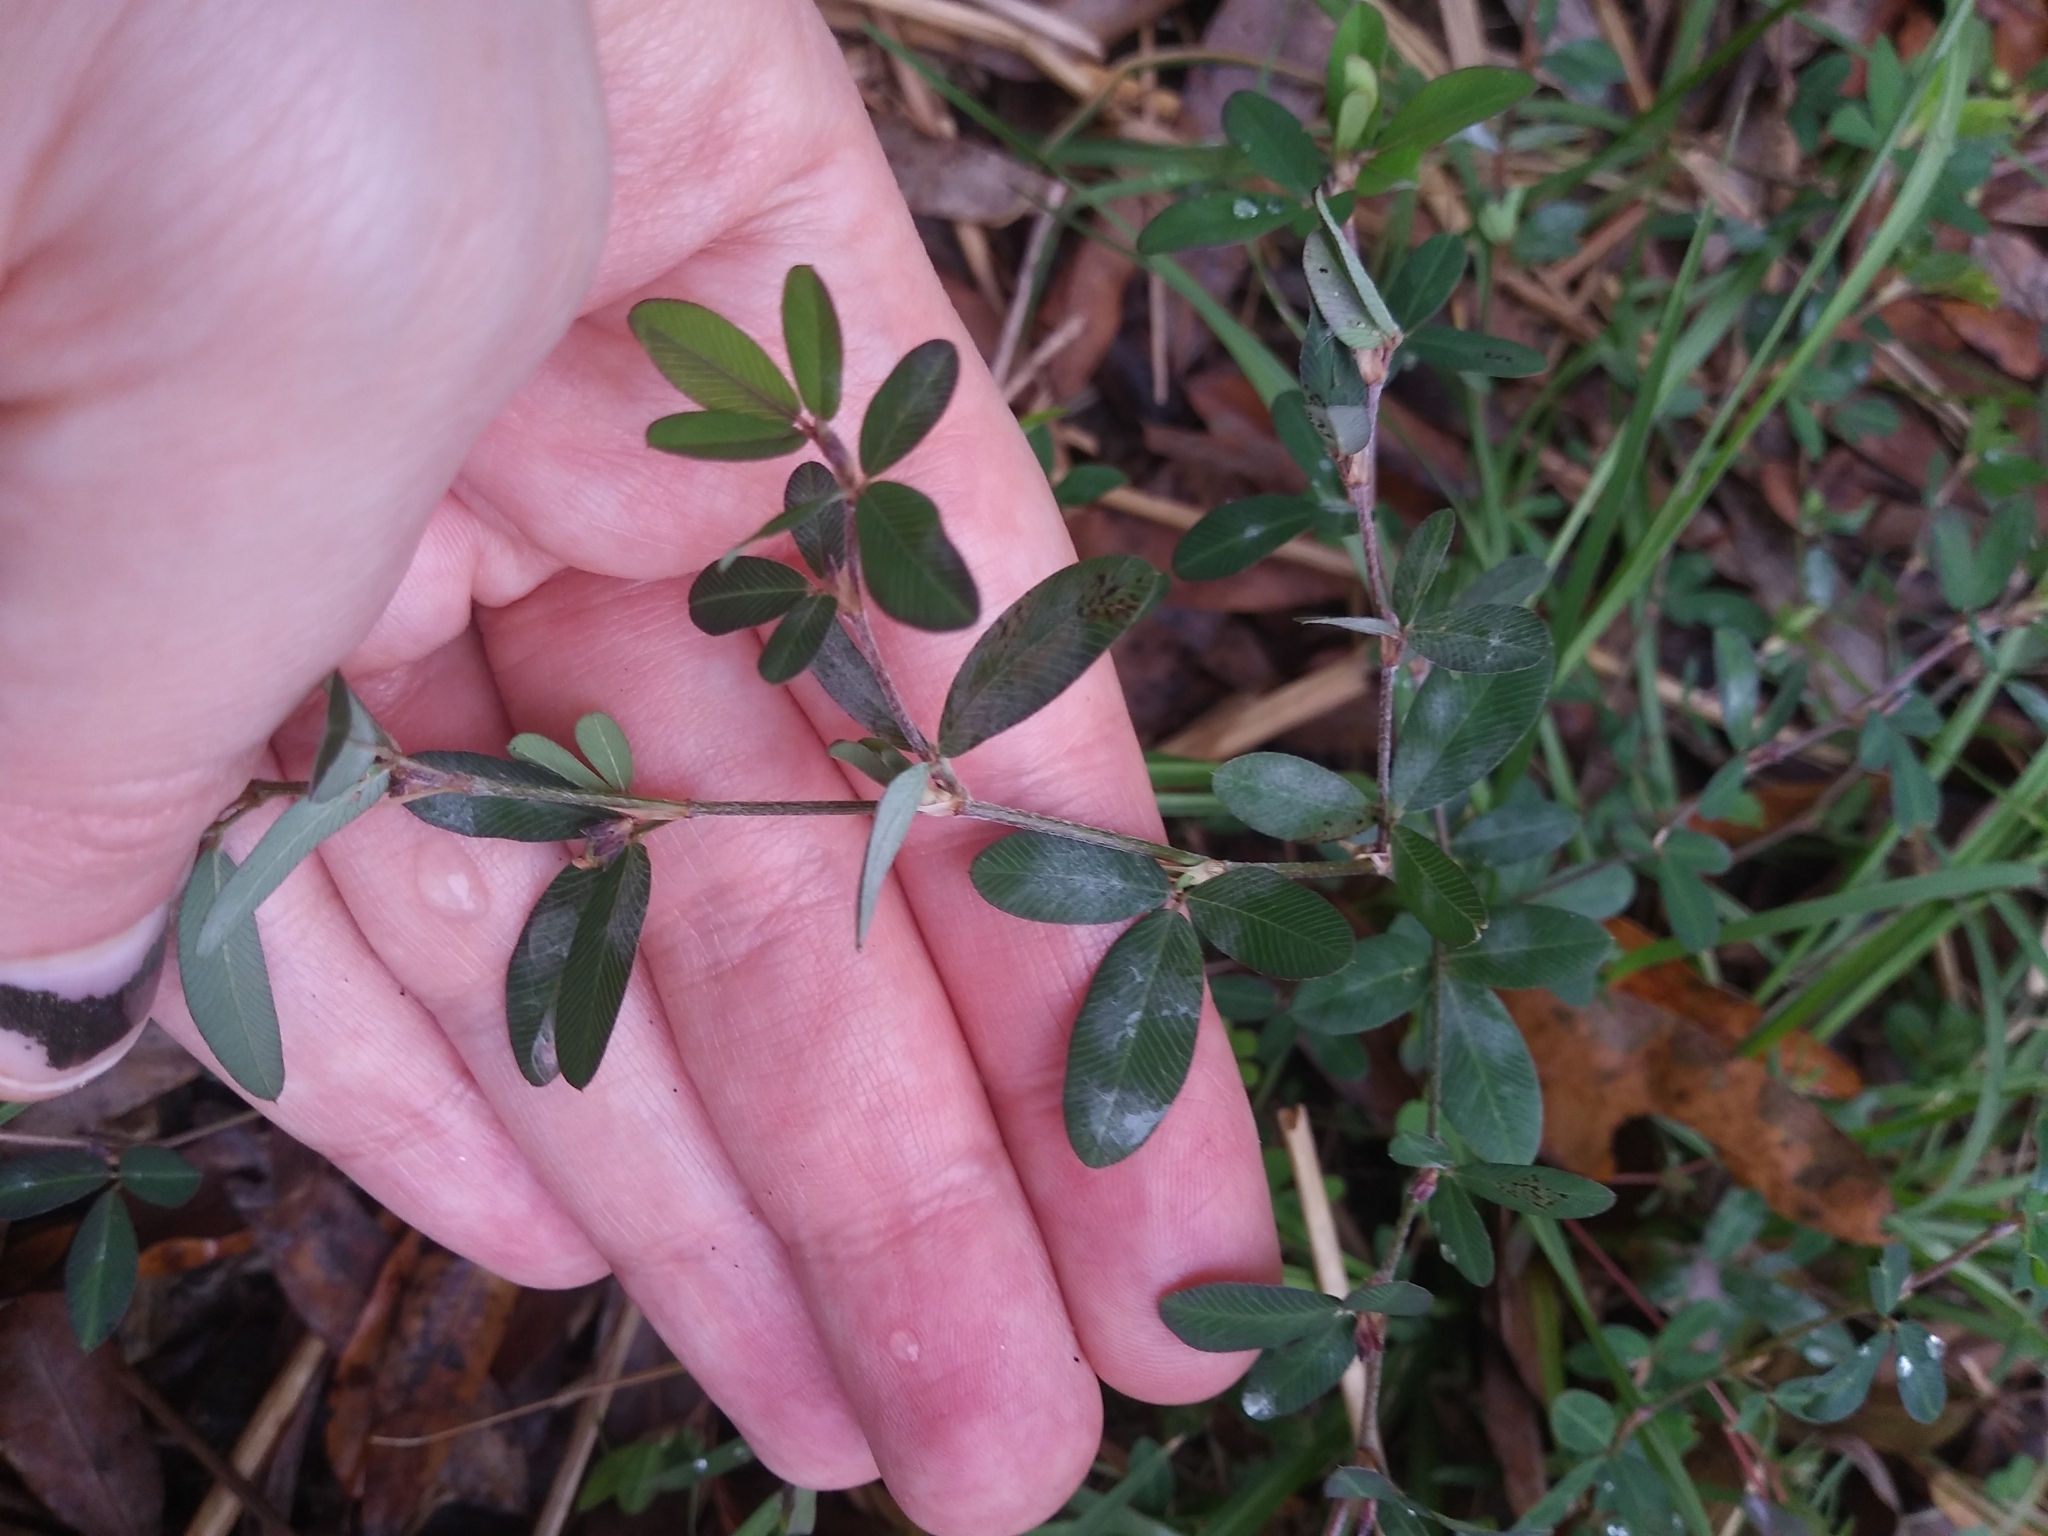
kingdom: Plantae
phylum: Tracheophyta
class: Magnoliopsida
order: Fabales
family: Fabaceae
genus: Kummerowia
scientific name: Kummerowia striata
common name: Japanese clover
